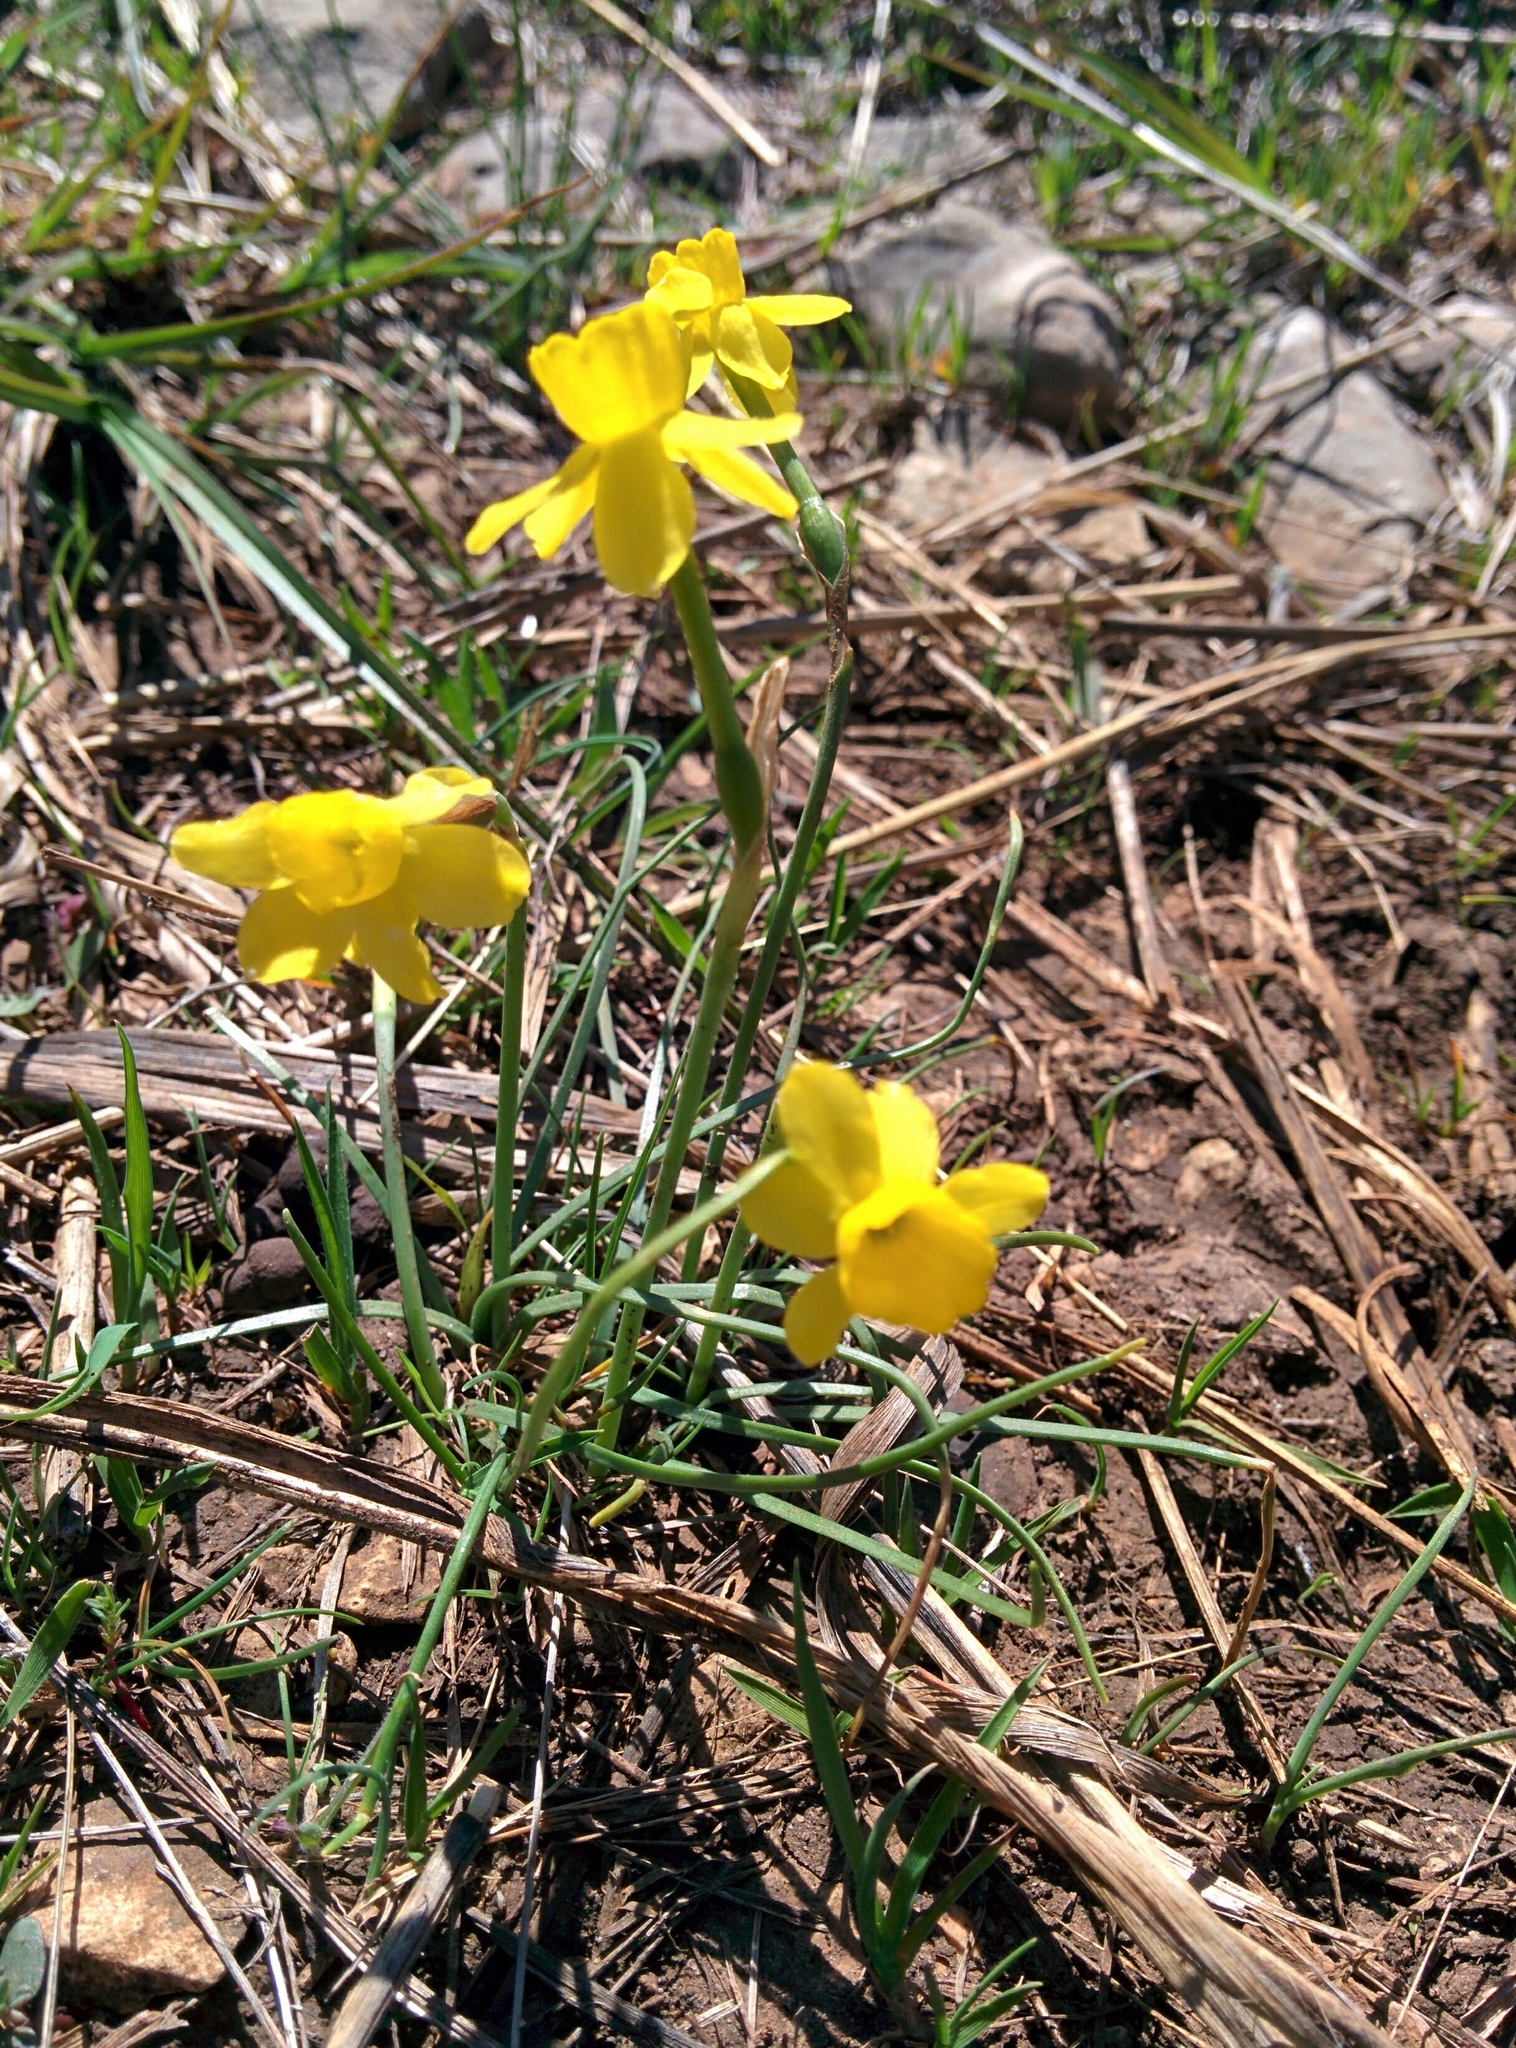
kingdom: Plantae
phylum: Tracheophyta
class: Liliopsida
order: Asparagales
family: Amaryllidaceae
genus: Narcissus
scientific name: Narcissus assoanus
